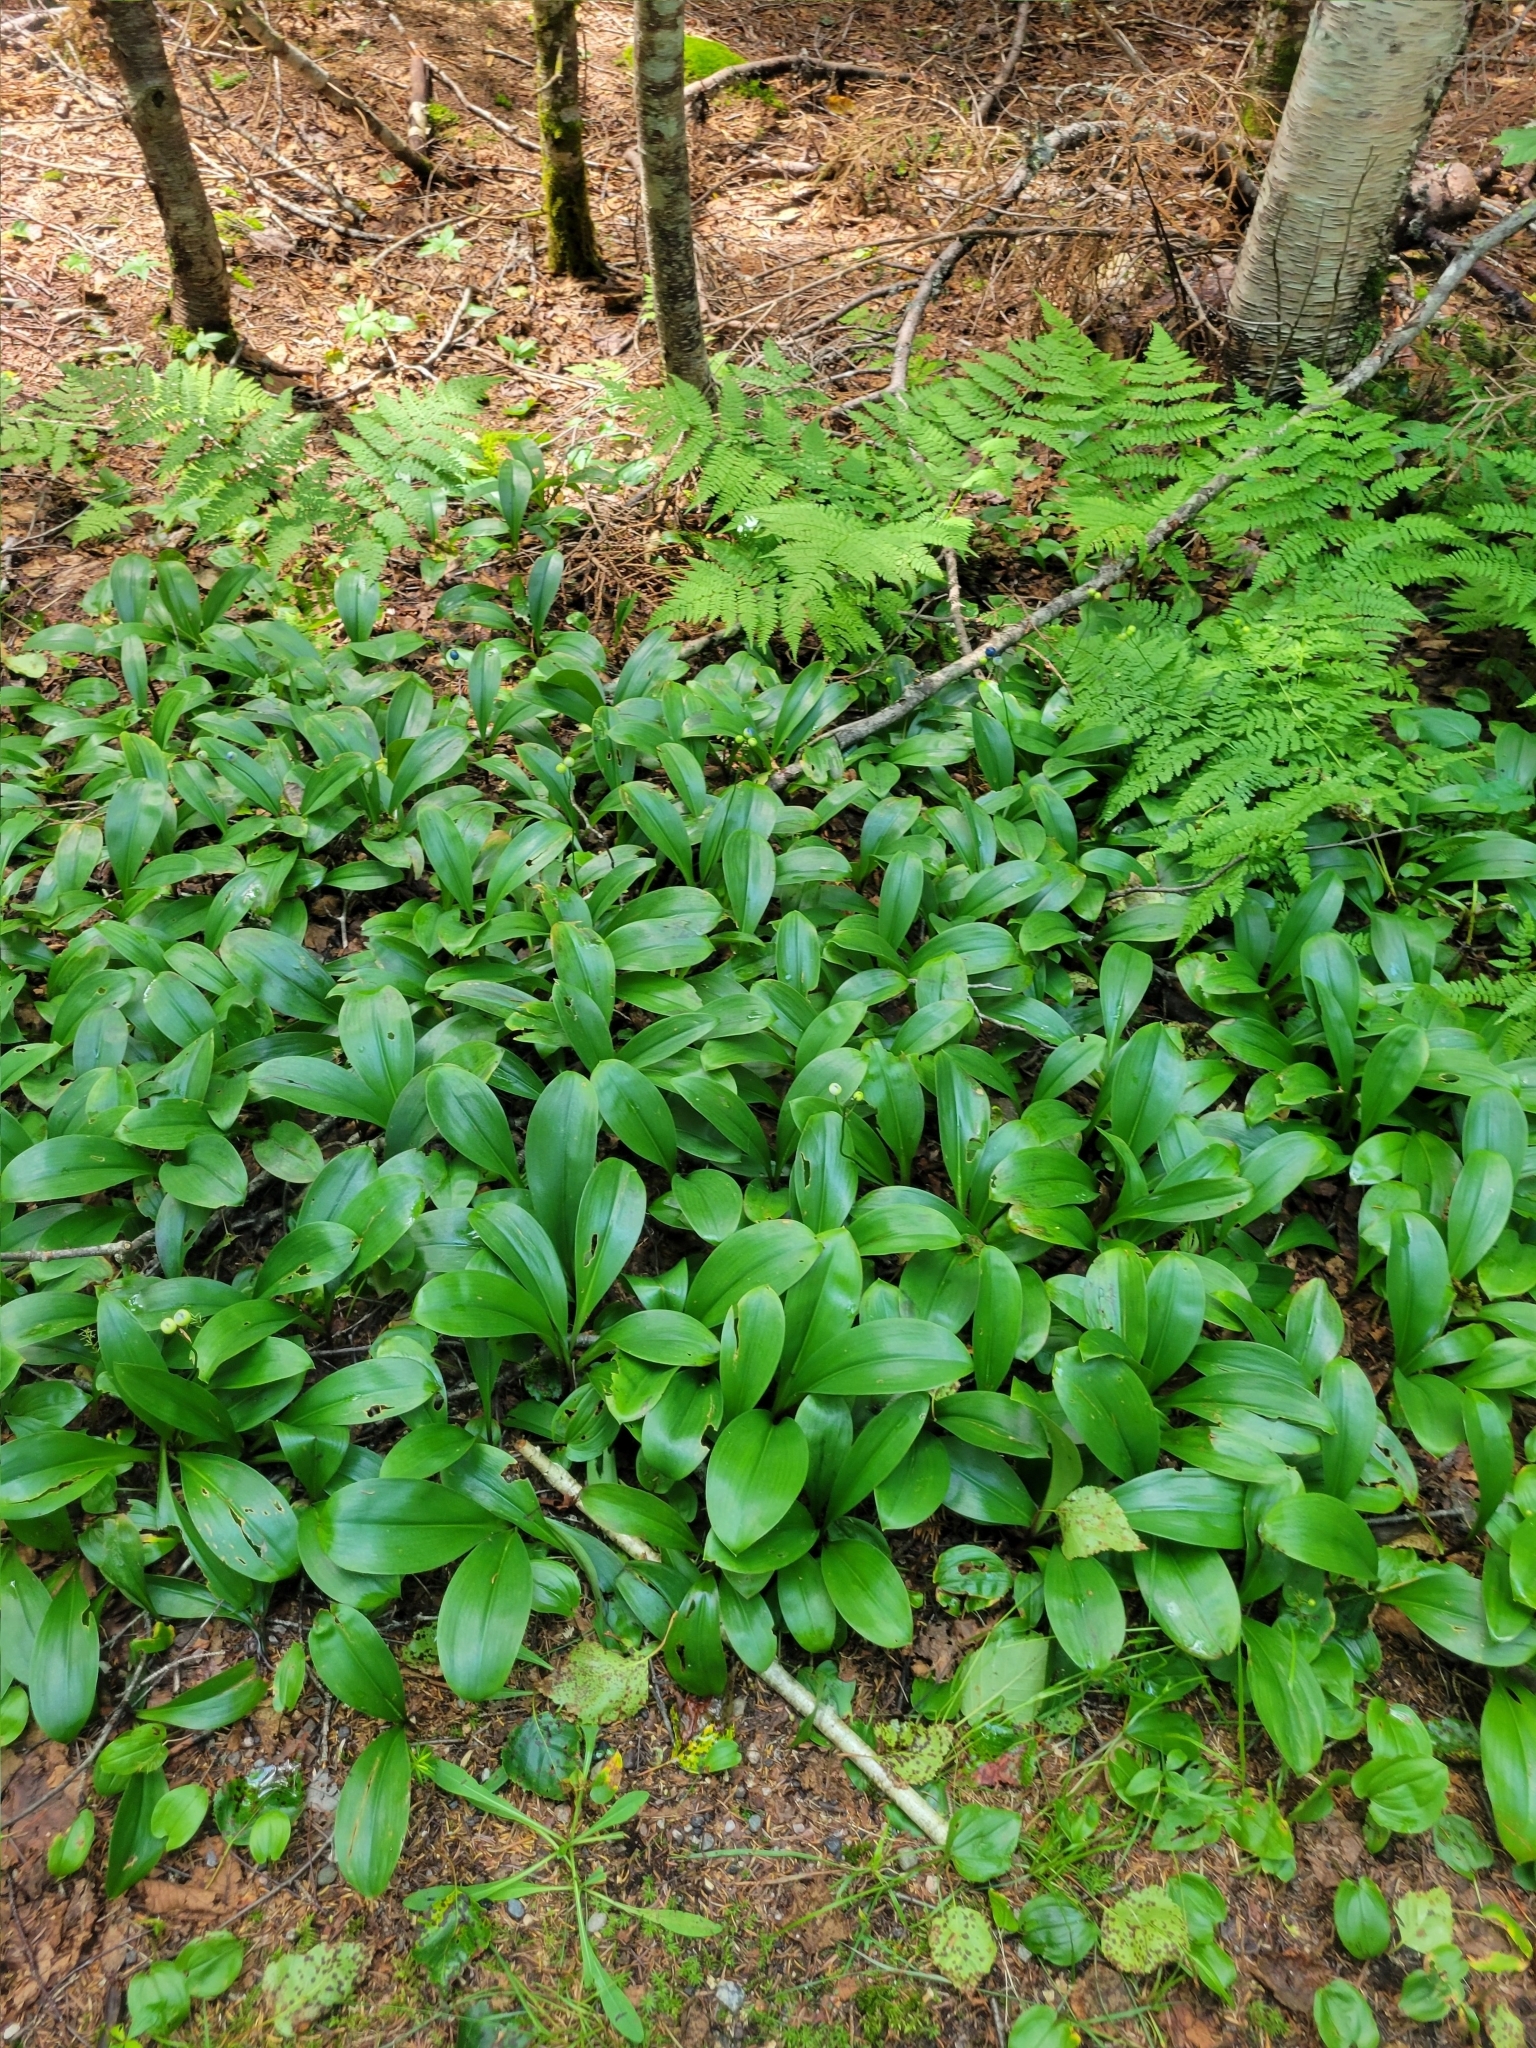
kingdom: Plantae
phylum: Tracheophyta
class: Liliopsida
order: Liliales
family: Liliaceae
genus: Clintonia
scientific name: Clintonia borealis
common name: Yellow clintonia
